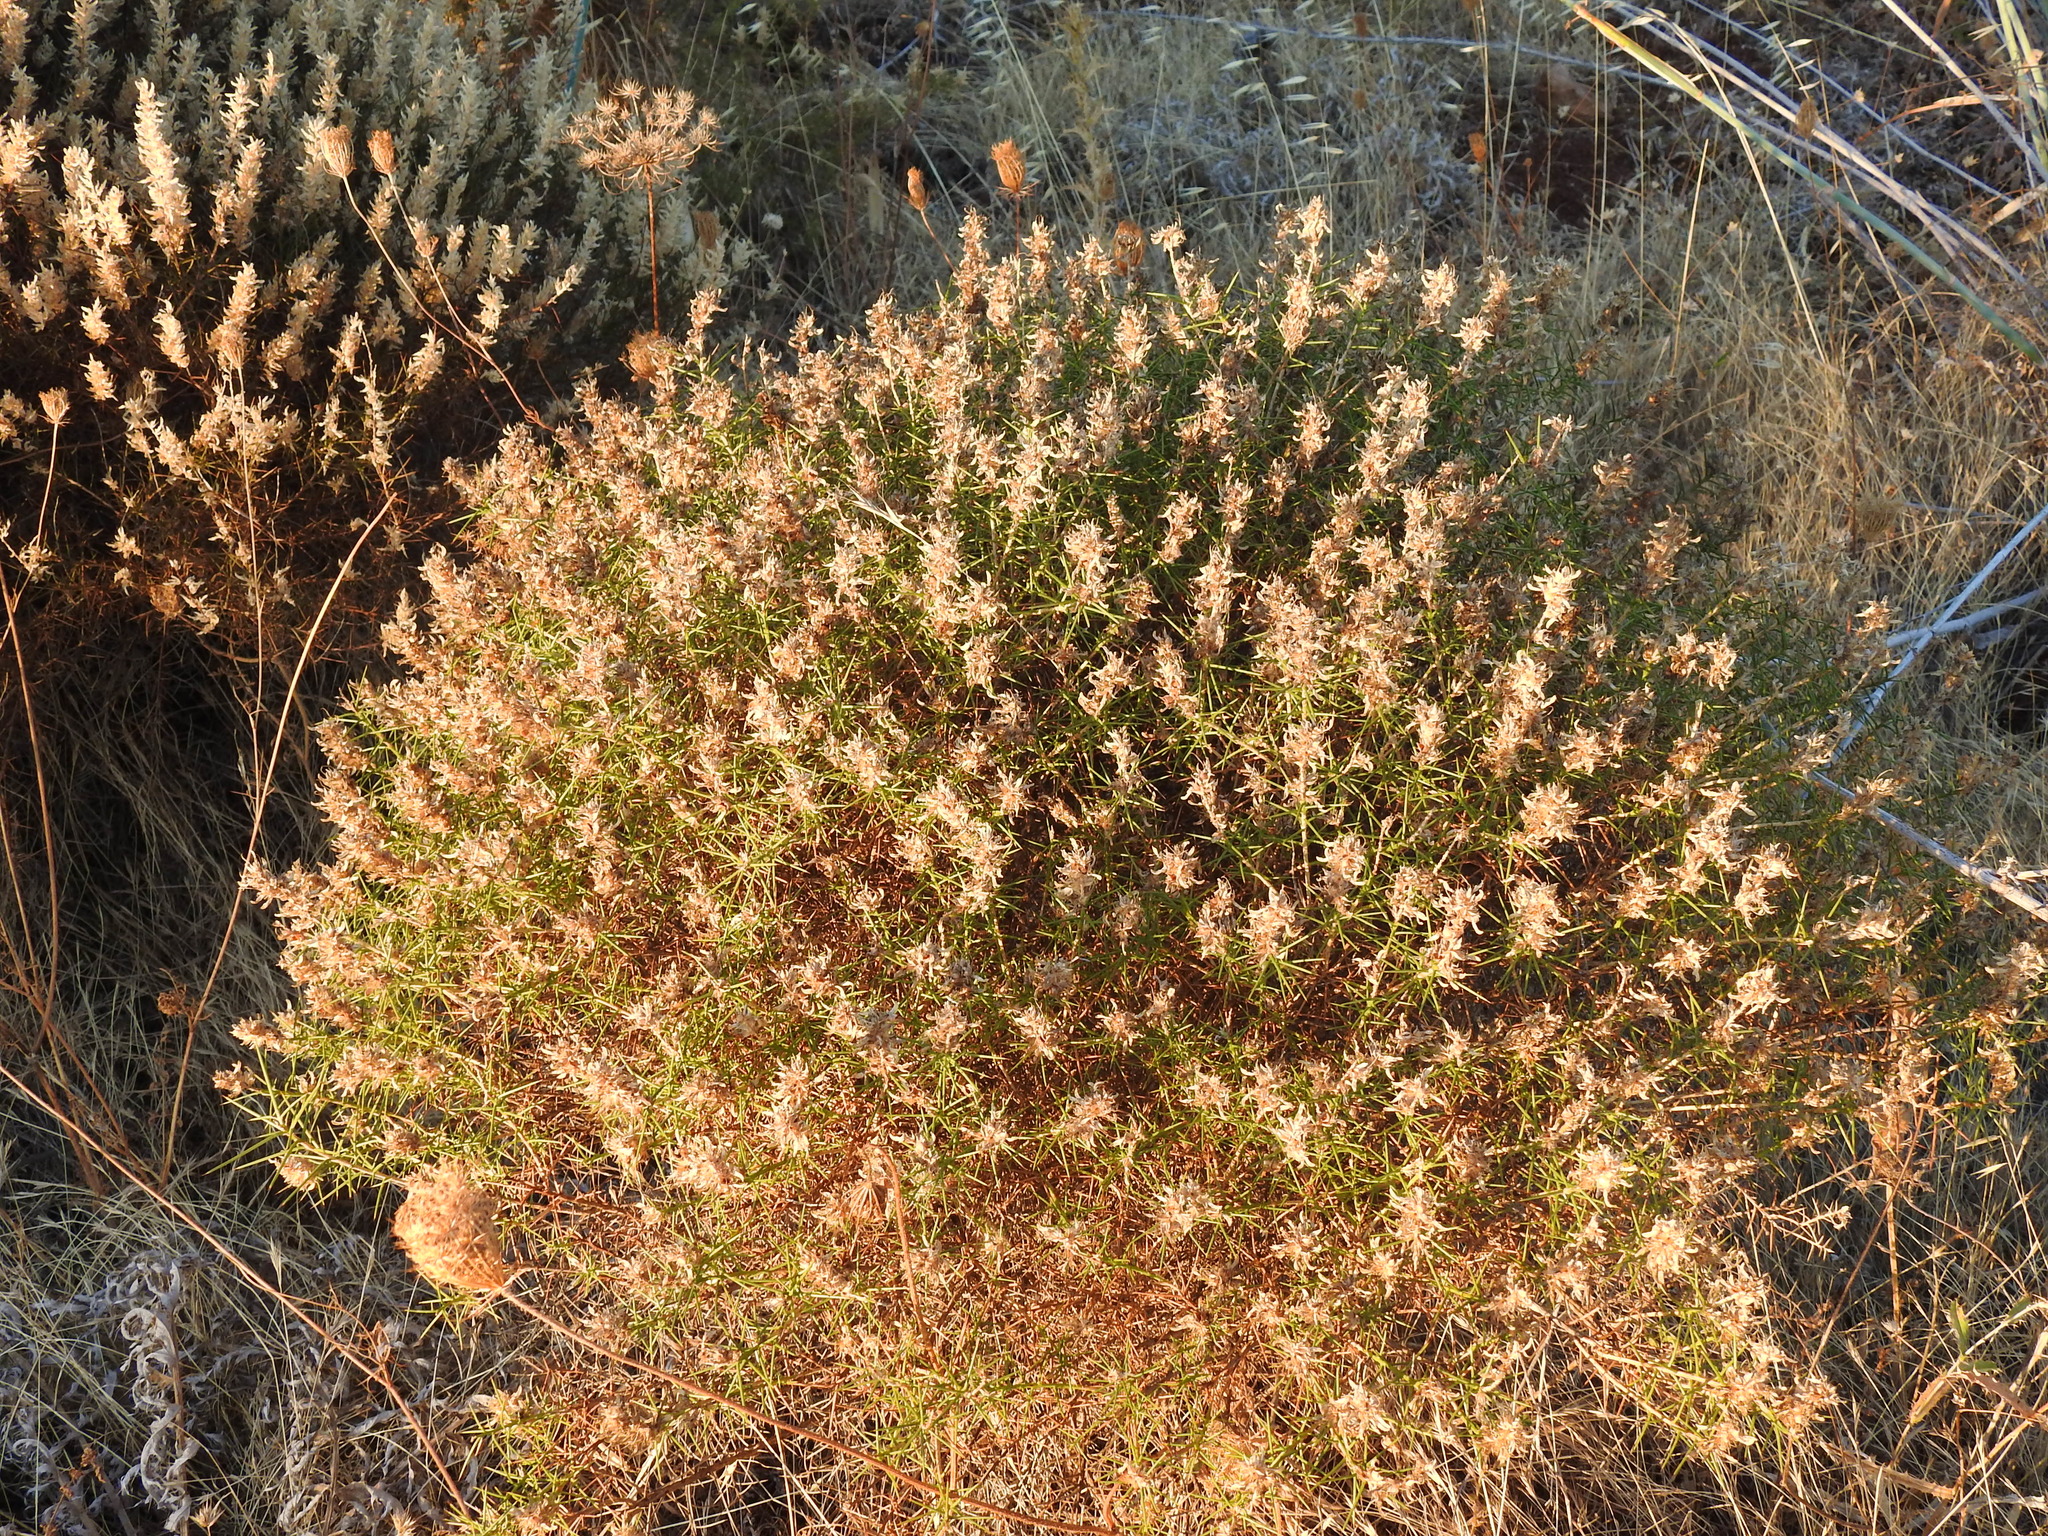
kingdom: Plantae
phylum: Tracheophyta
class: Magnoliopsida
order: Fabales
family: Fabaceae
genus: Genista
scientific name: Genista hirsuta
